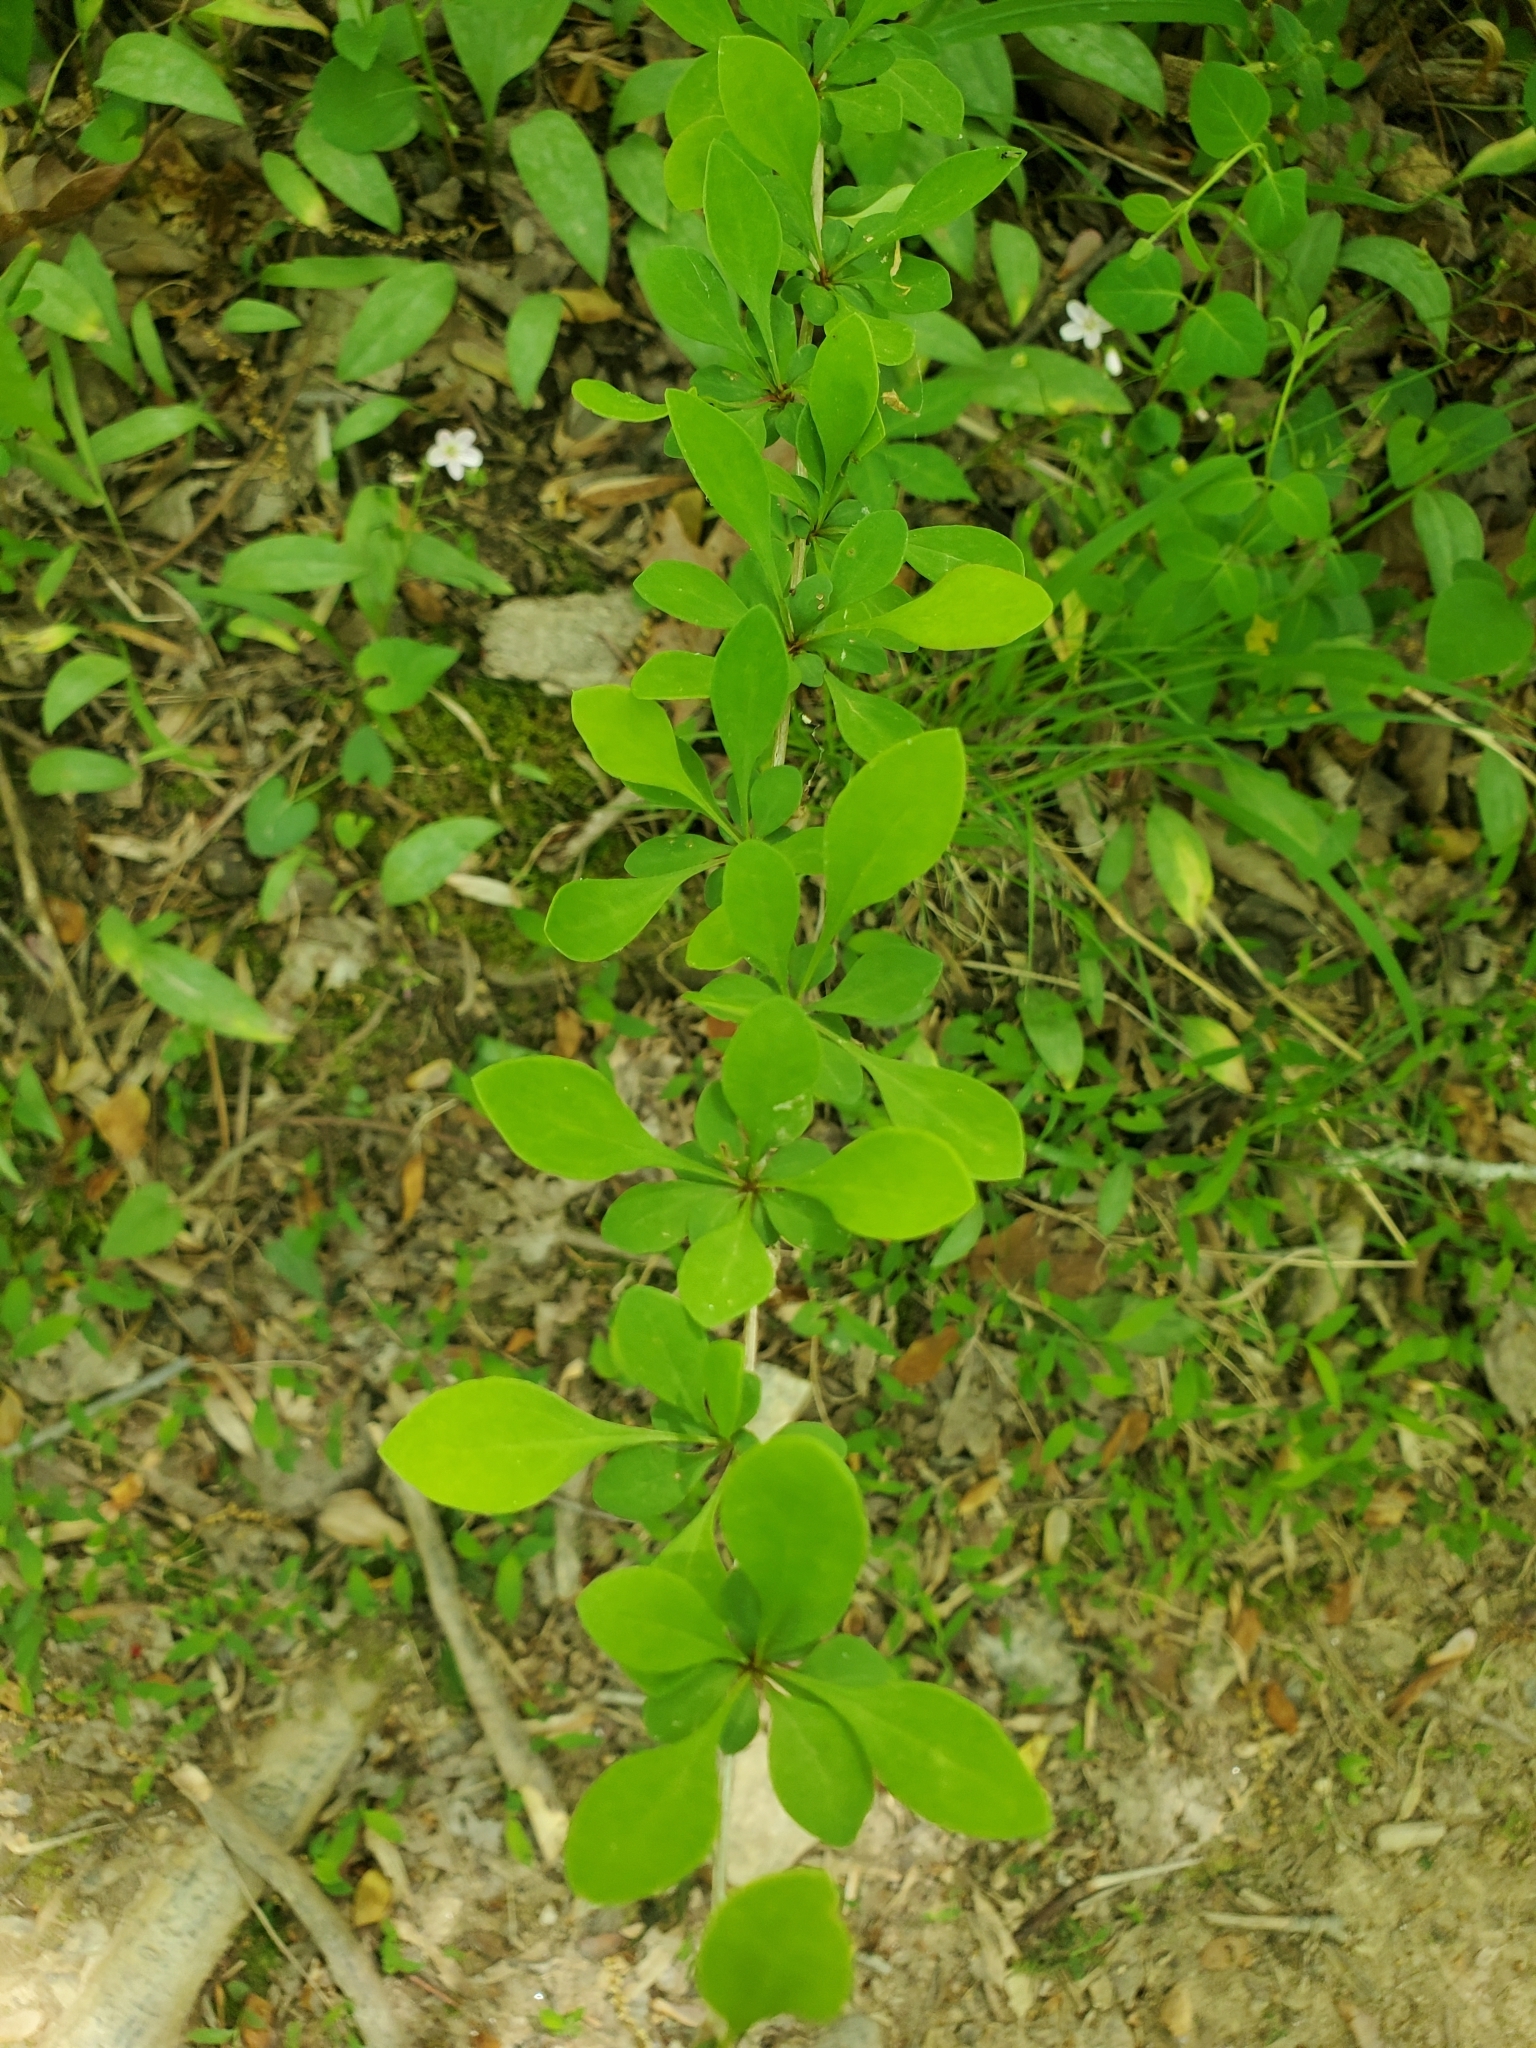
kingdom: Plantae
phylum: Tracheophyta
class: Magnoliopsida
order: Ranunculales
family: Berberidaceae
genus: Berberis
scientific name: Berberis thunbergii
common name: Japanese barberry
